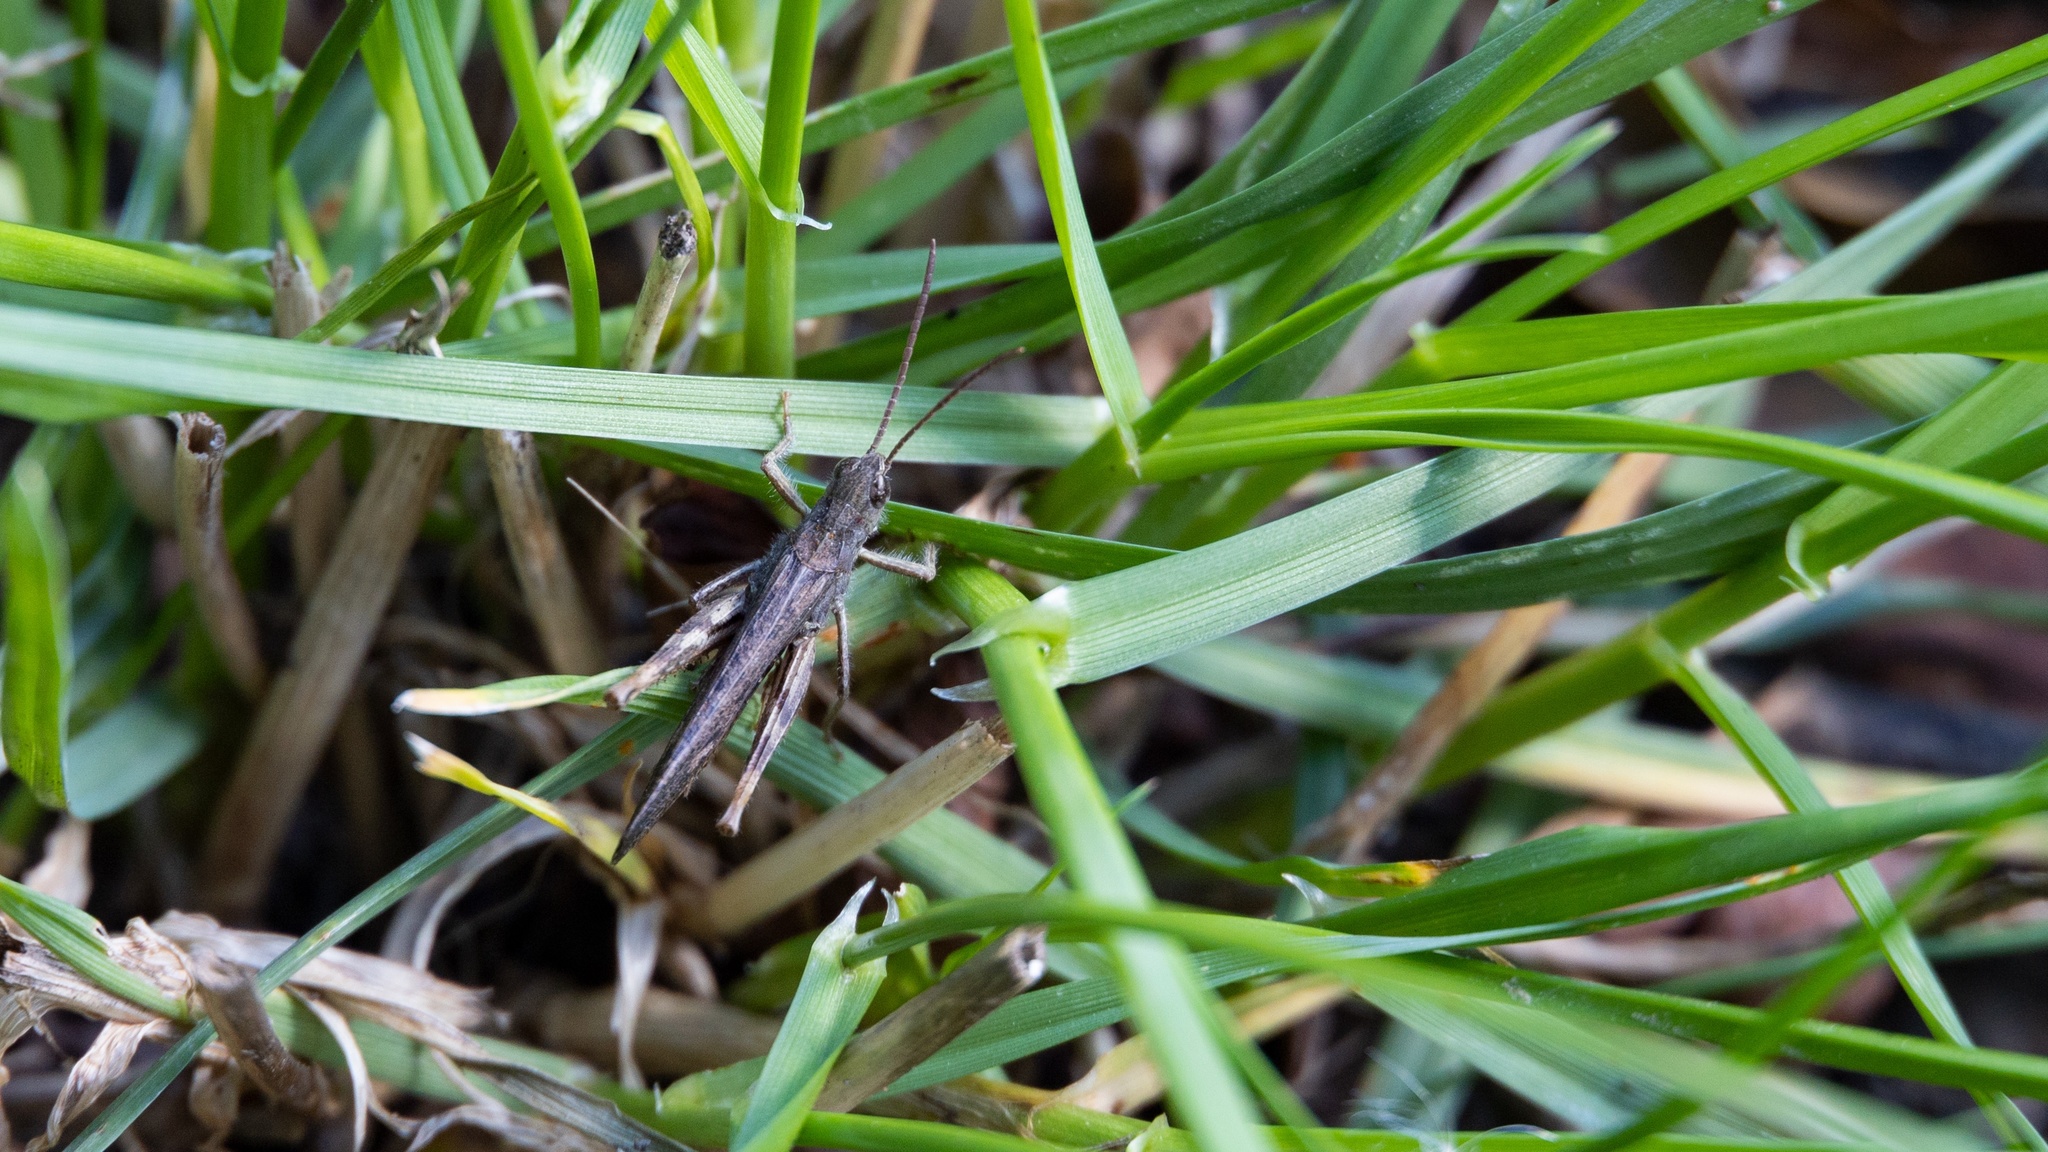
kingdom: Animalia
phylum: Arthropoda
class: Insecta
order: Orthoptera
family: Acrididae
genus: Chorthippus
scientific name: Chorthippus brunneus
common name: Field grasshopper
